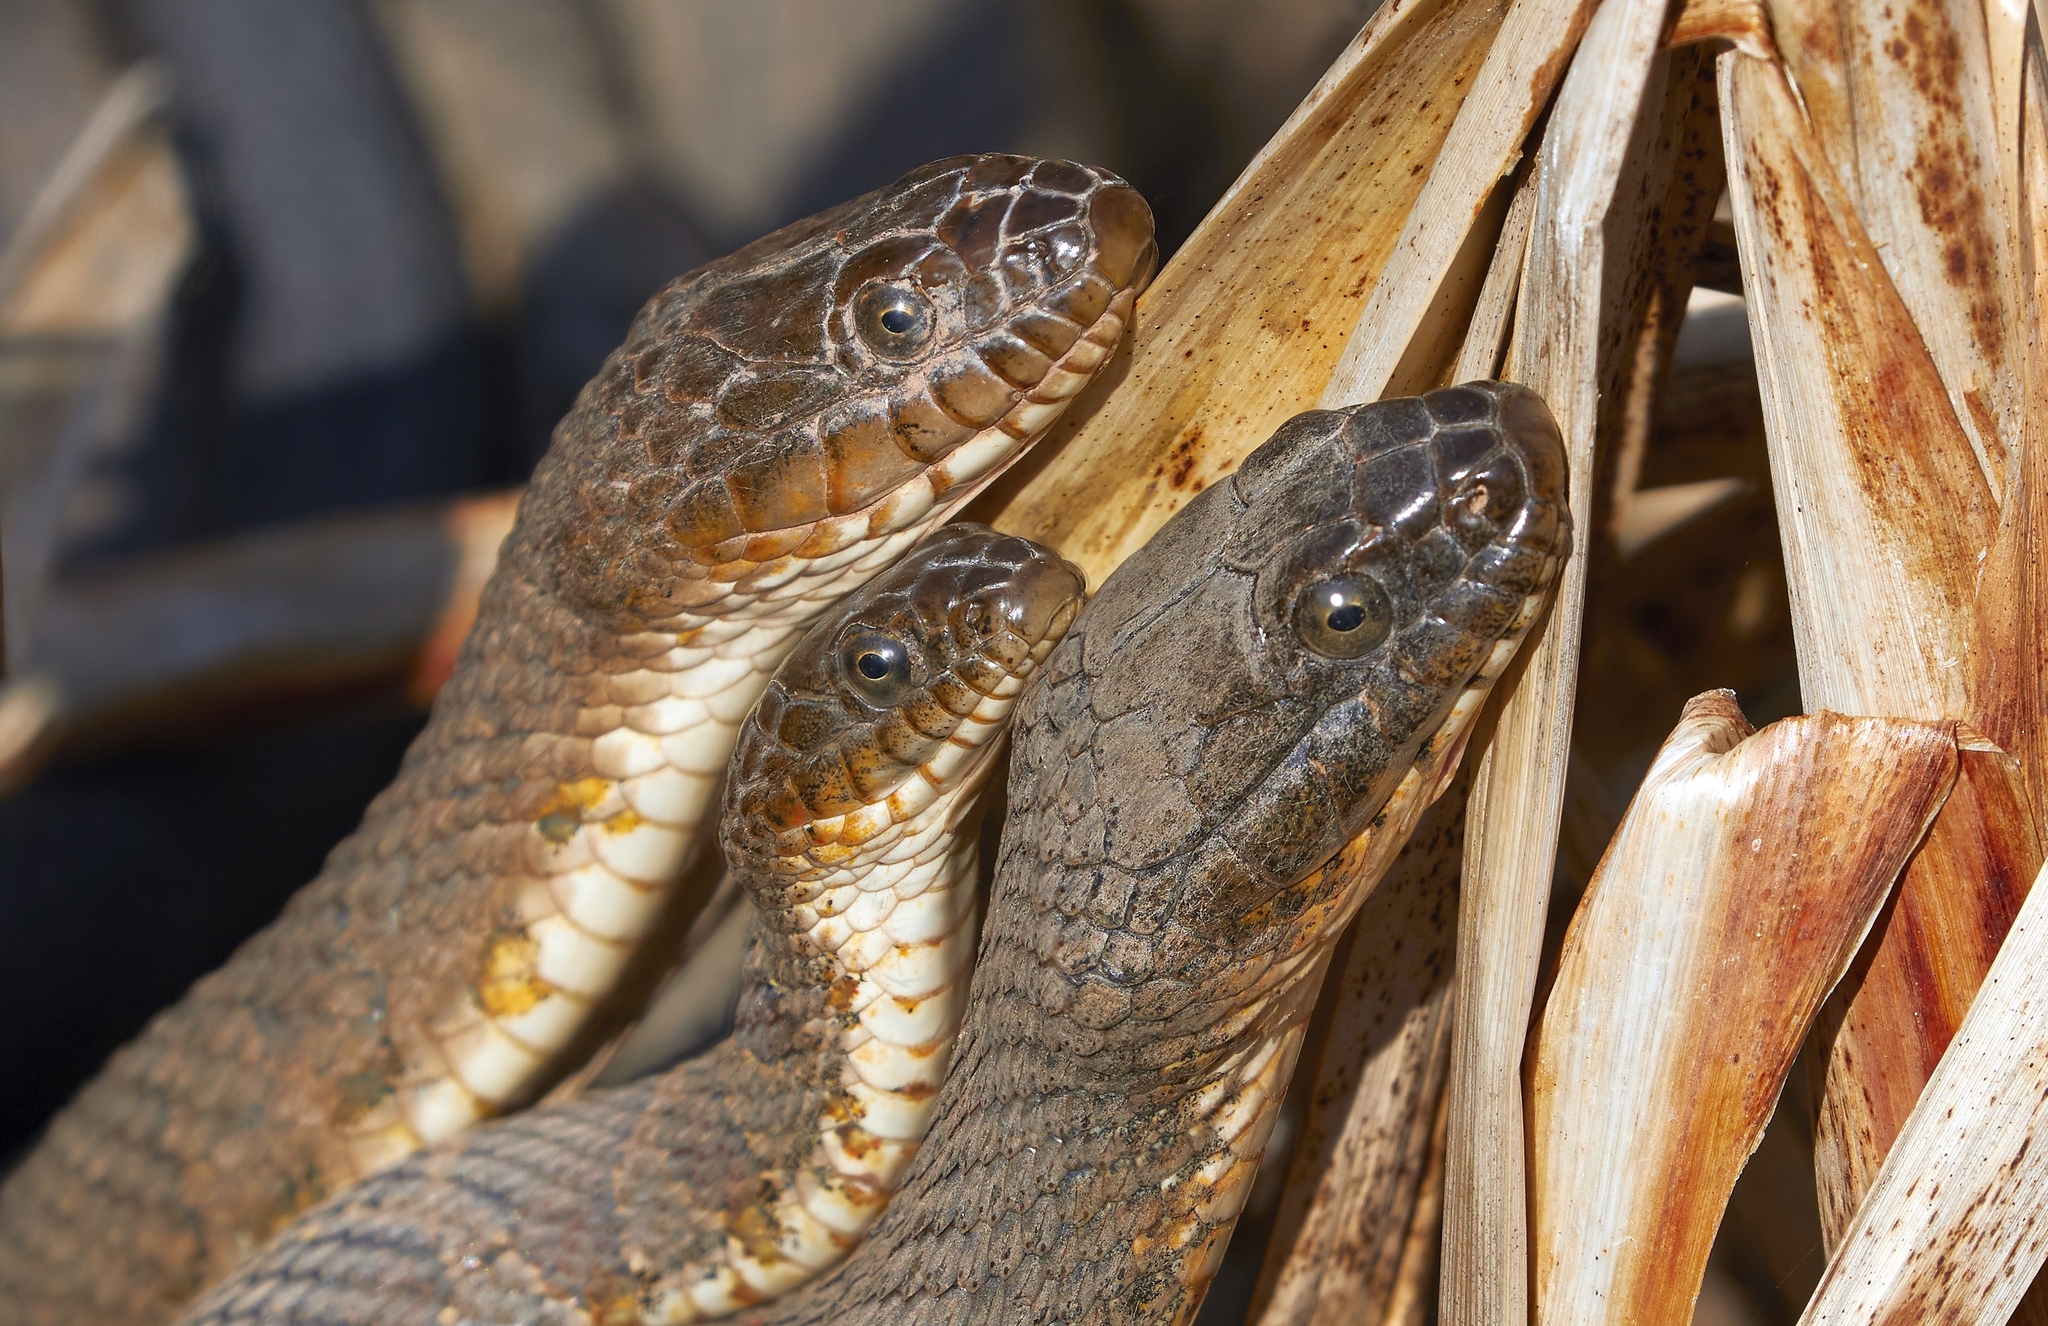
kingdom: Animalia
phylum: Chordata
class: Squamata
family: Colubridae
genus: Nerodia
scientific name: Nerodia sipedon
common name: Northern water snake
